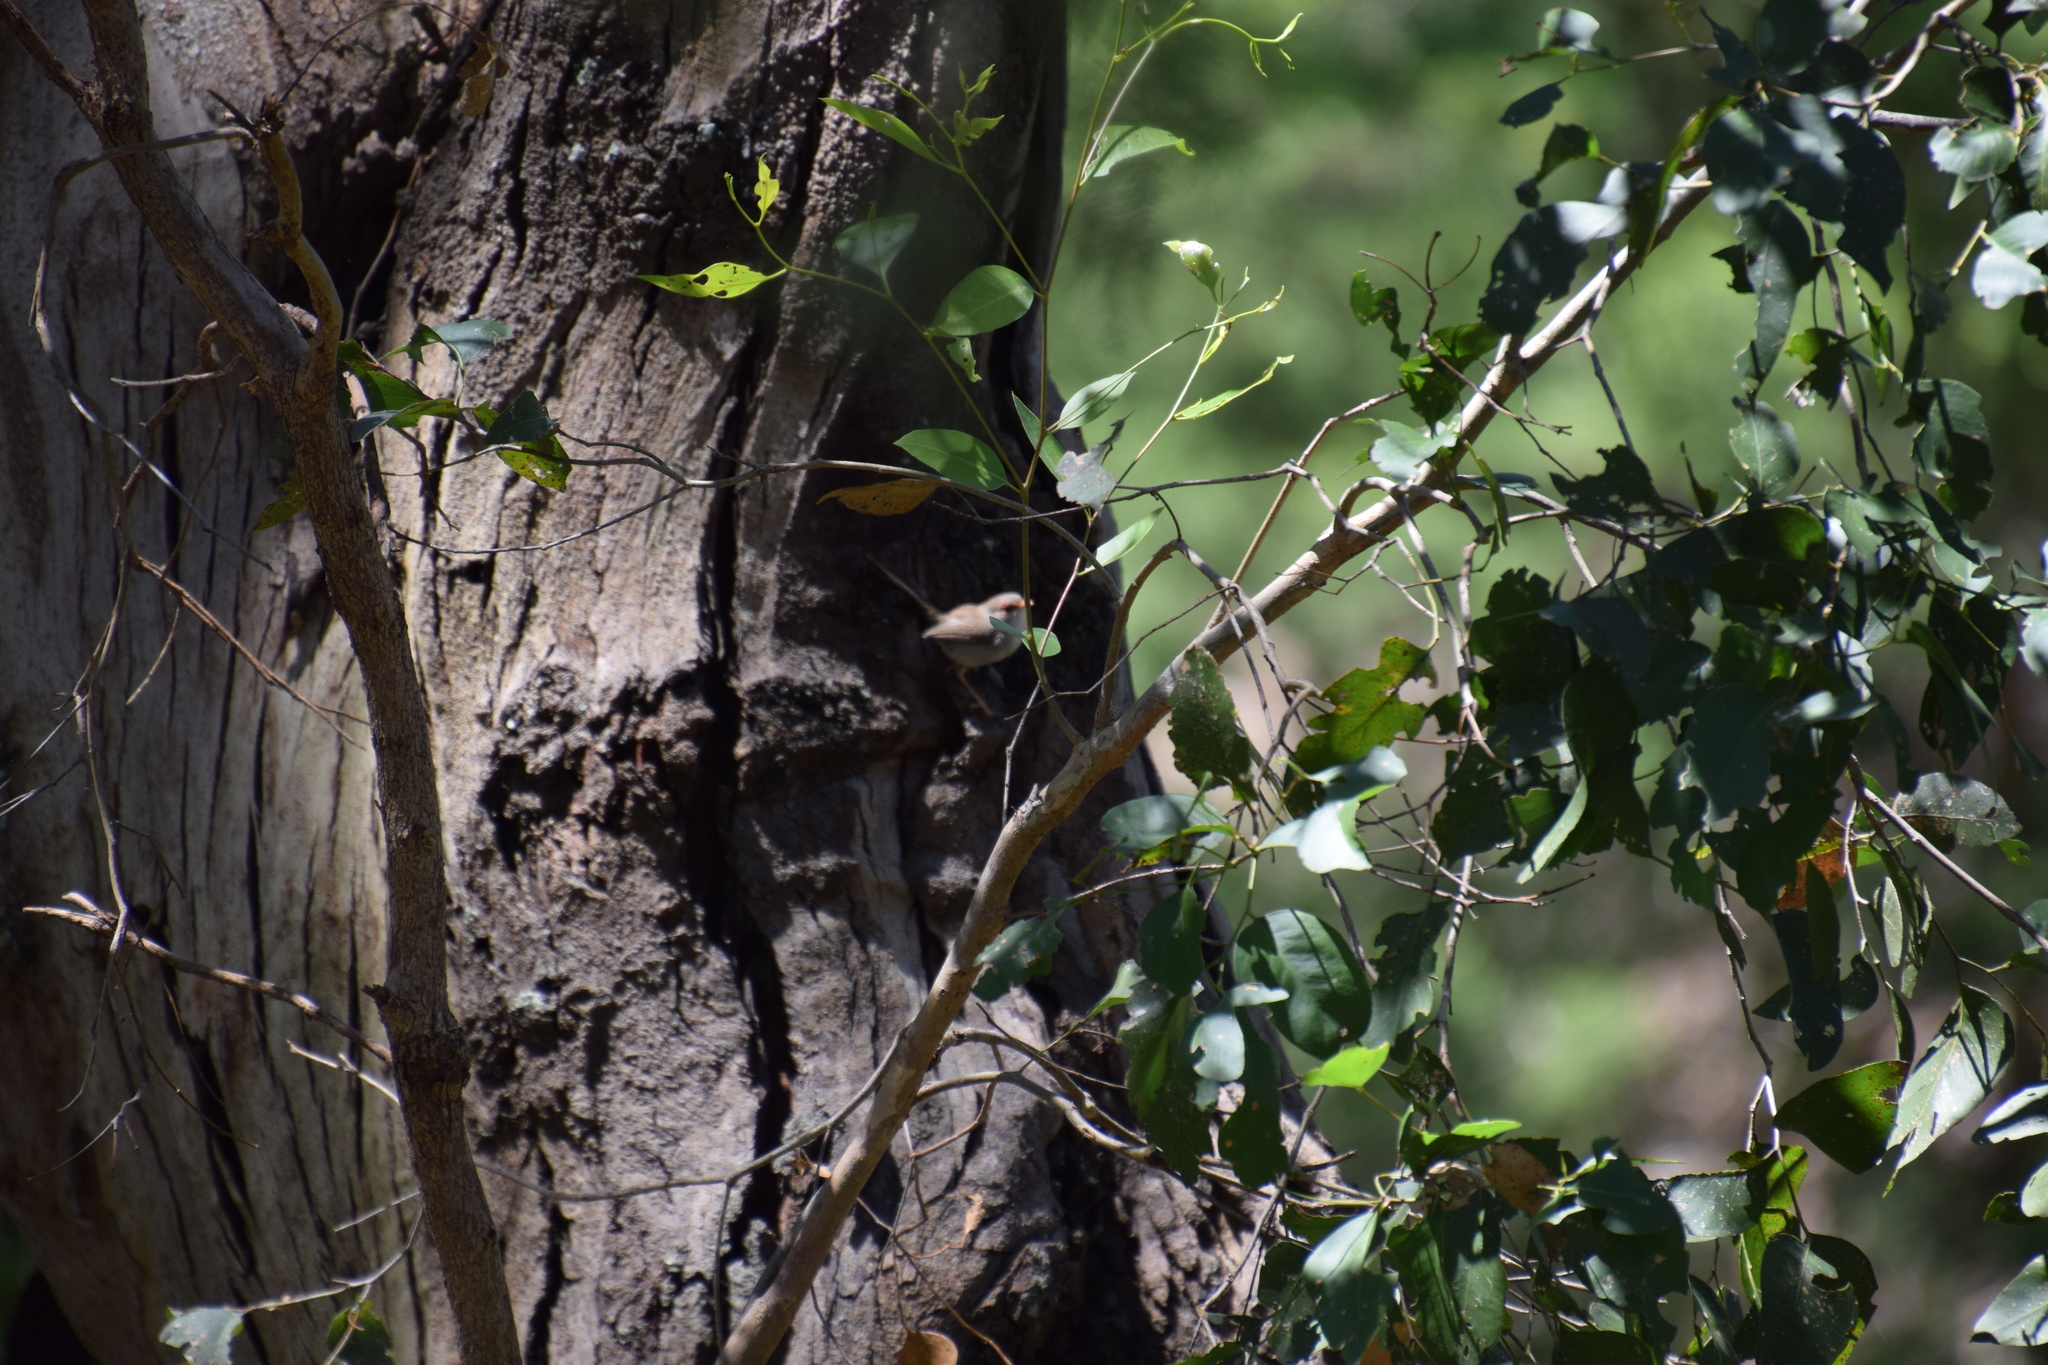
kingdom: Animalia
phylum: Chordata
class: Aves
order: Passeriformes
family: Maluridae
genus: Malurus
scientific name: Malurus cyaneus
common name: Superb fairywren
